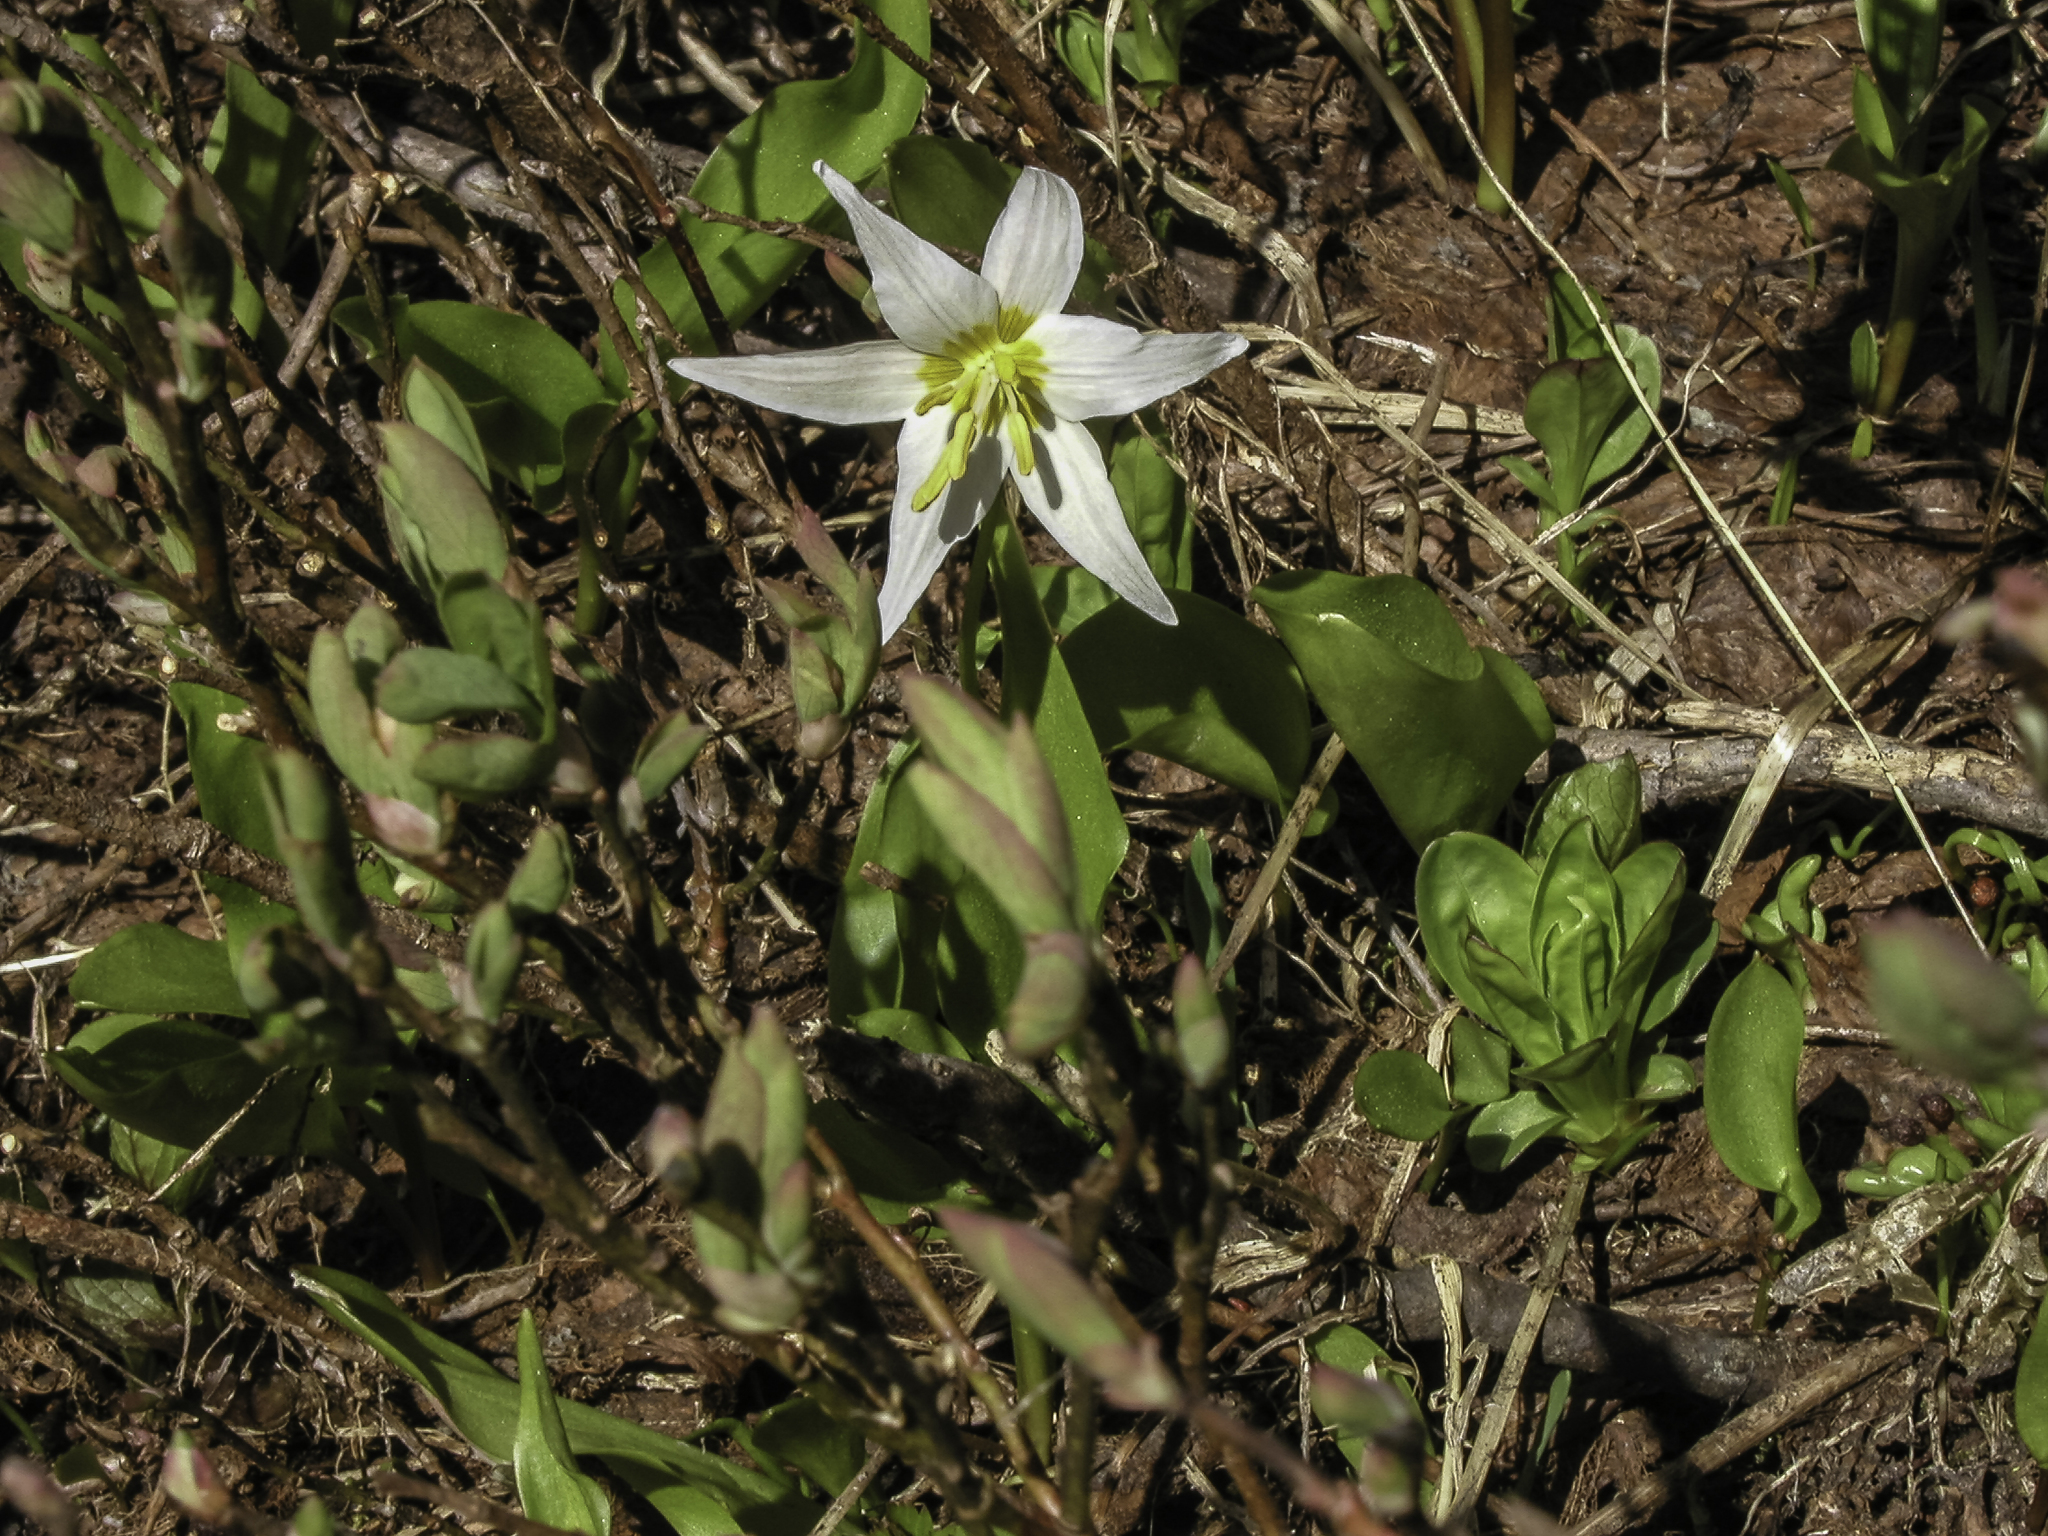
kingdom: Plantae
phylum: Tracheophyta
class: Liliopsida
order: Liliales
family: Liliaceae
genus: Erythronium
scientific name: Erythronium montanum
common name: Avalanche lily
